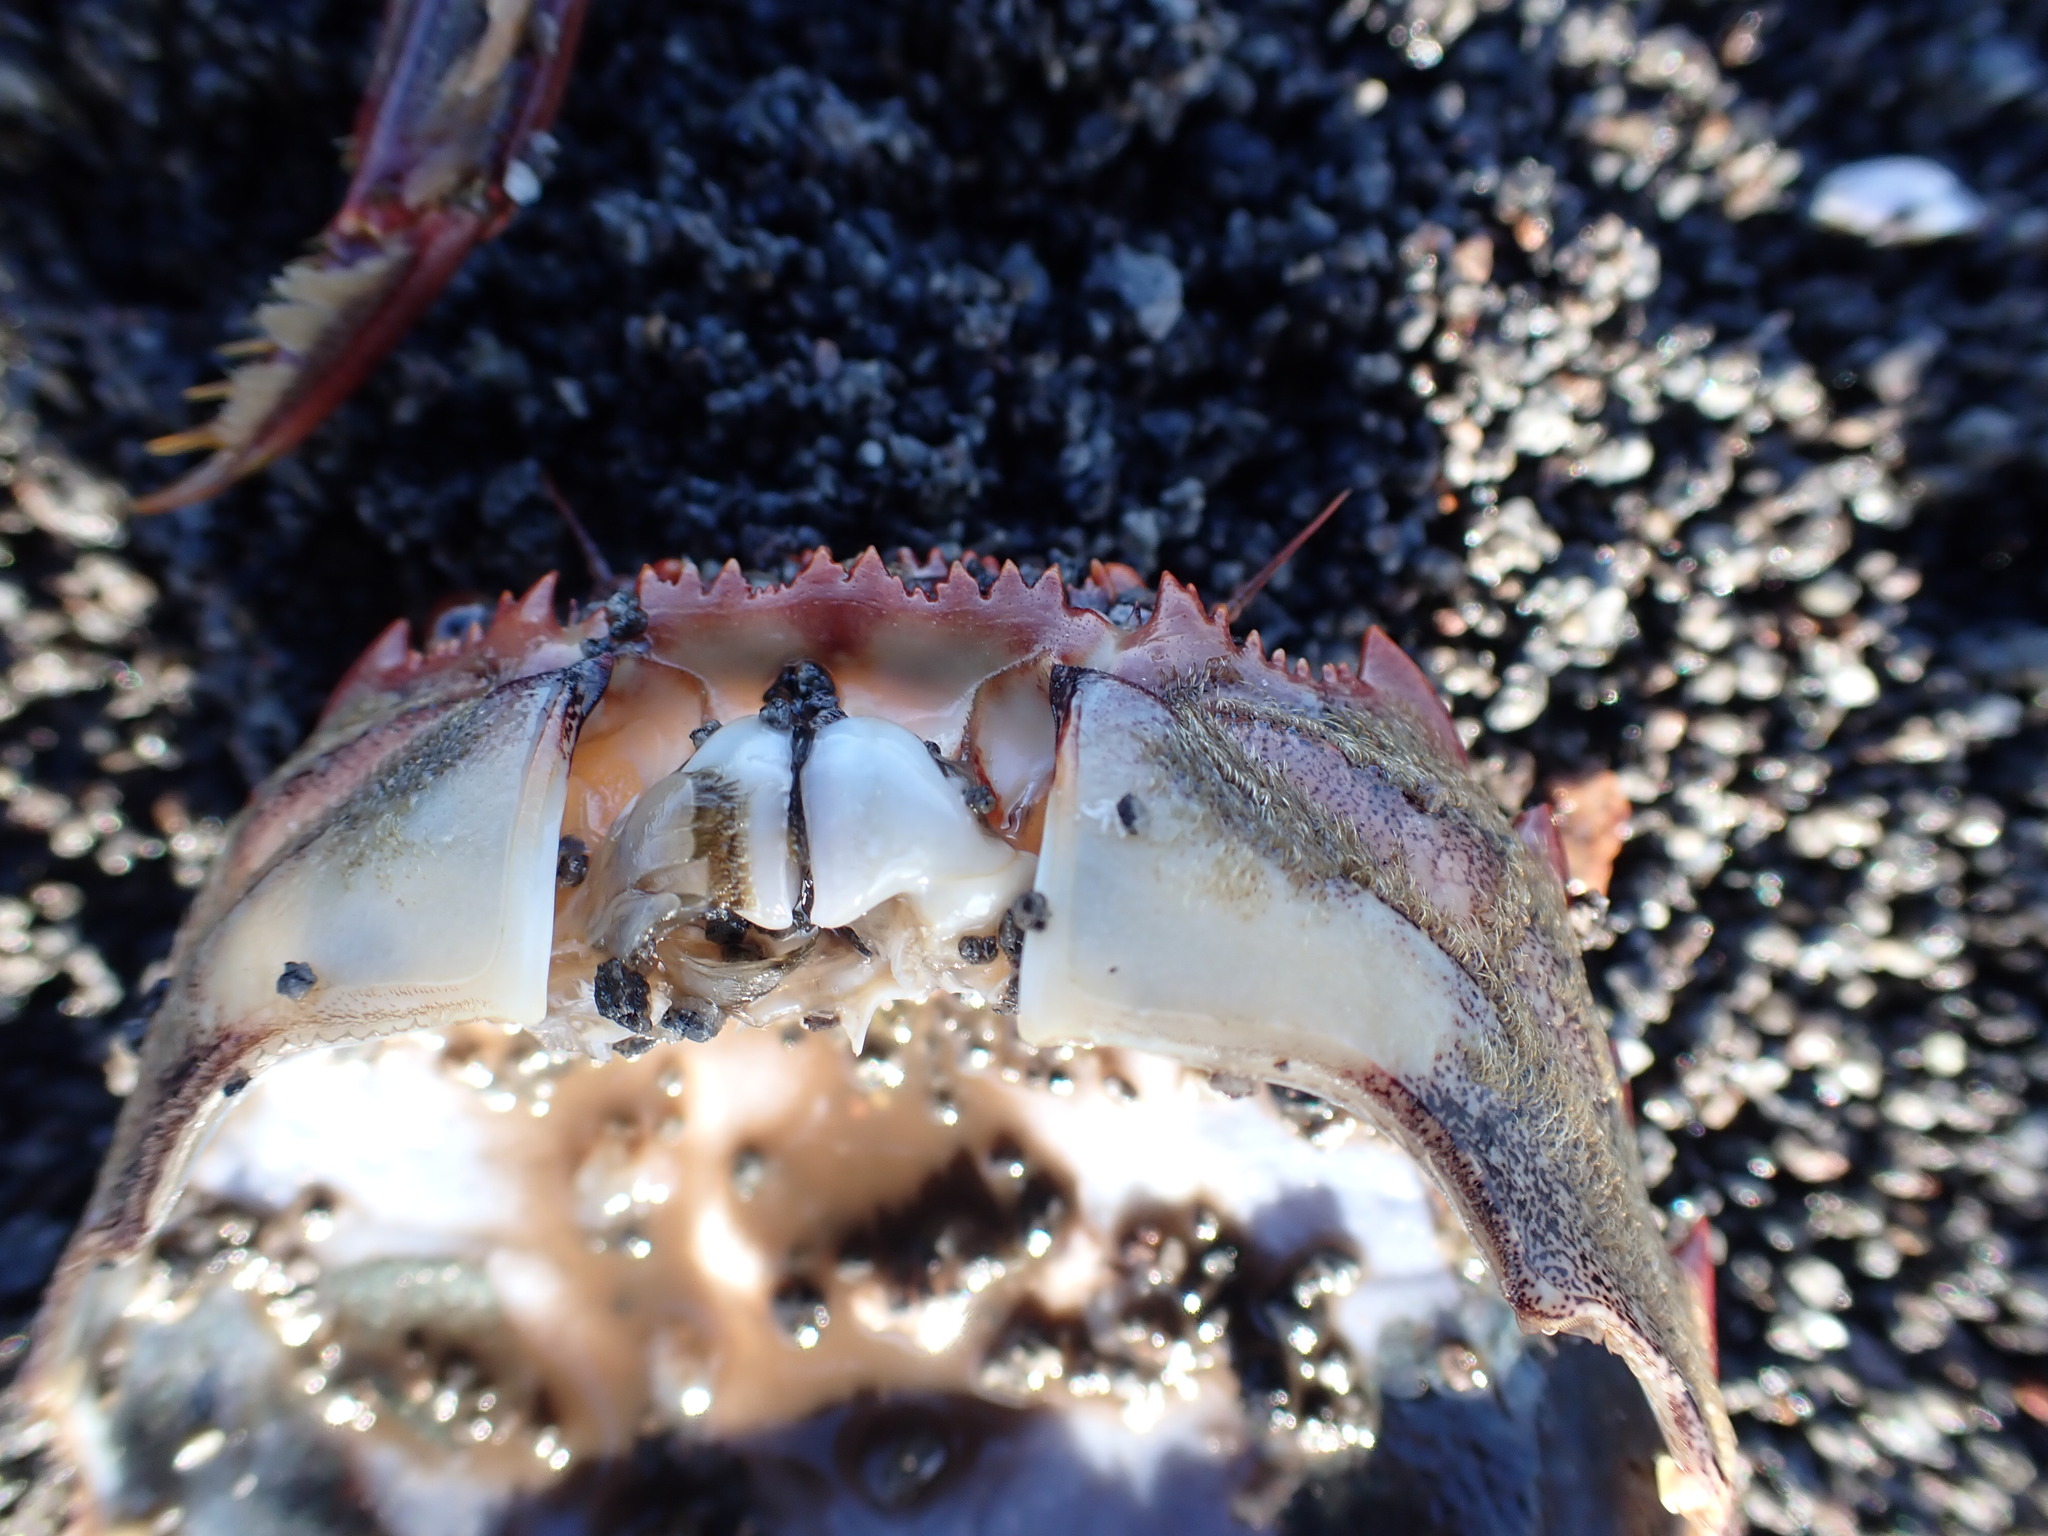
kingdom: Animalia
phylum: Arthropoda
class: Malacostraca
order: Decapoda
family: Plagusiidae
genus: Guinusia
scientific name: Guinusia chabrus
